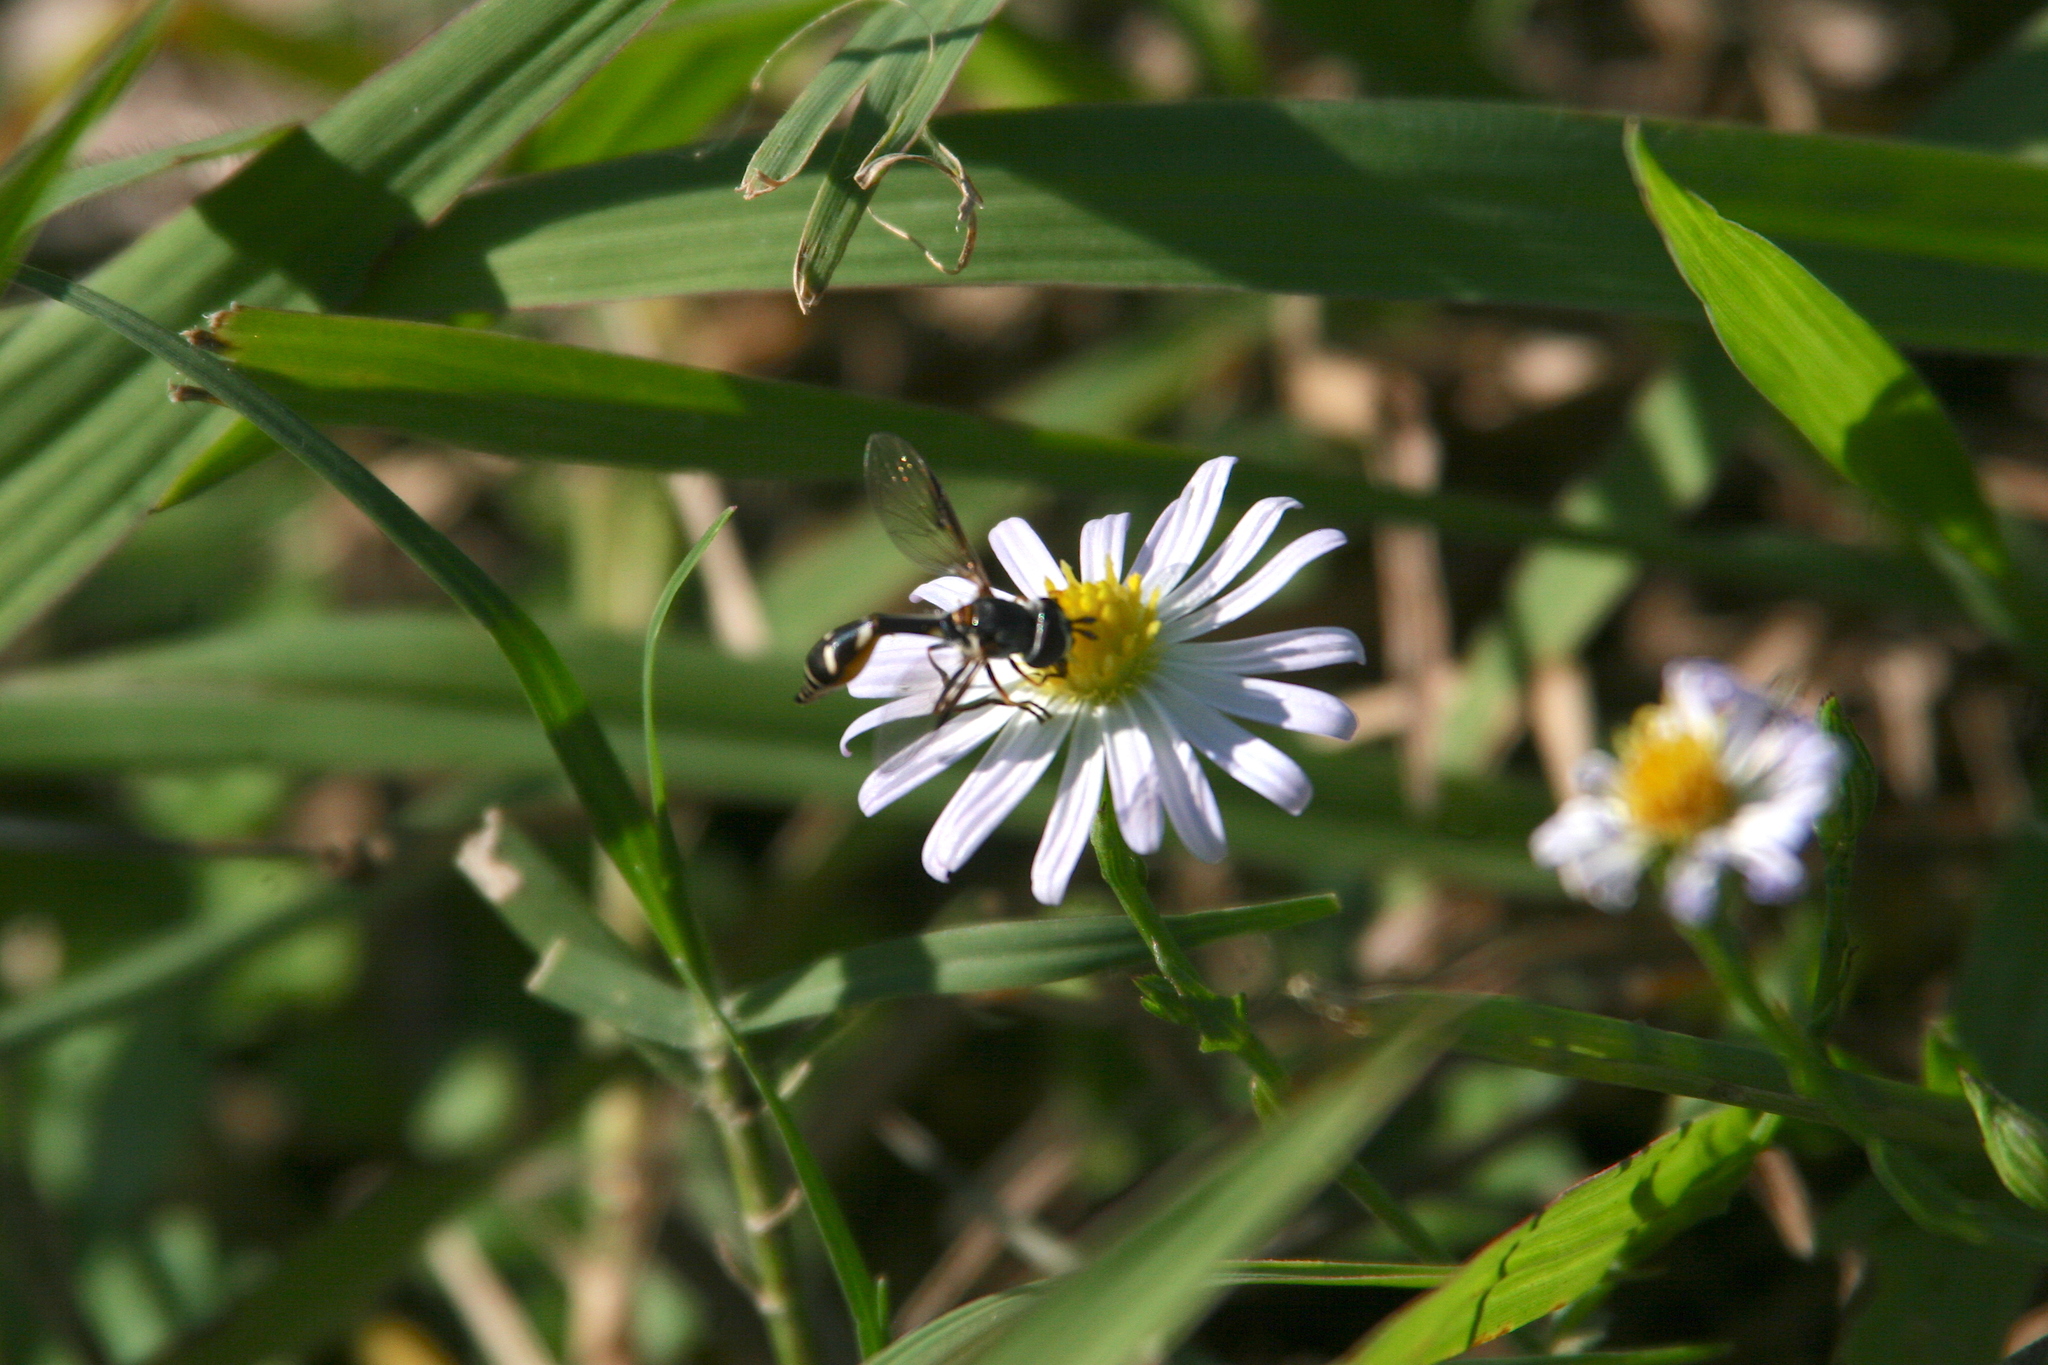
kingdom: Animalia
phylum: Arthropoda
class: Insecta
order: Diptera
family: Syrphidae
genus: Dioprosopa
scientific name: Dioprosopa clavatus
